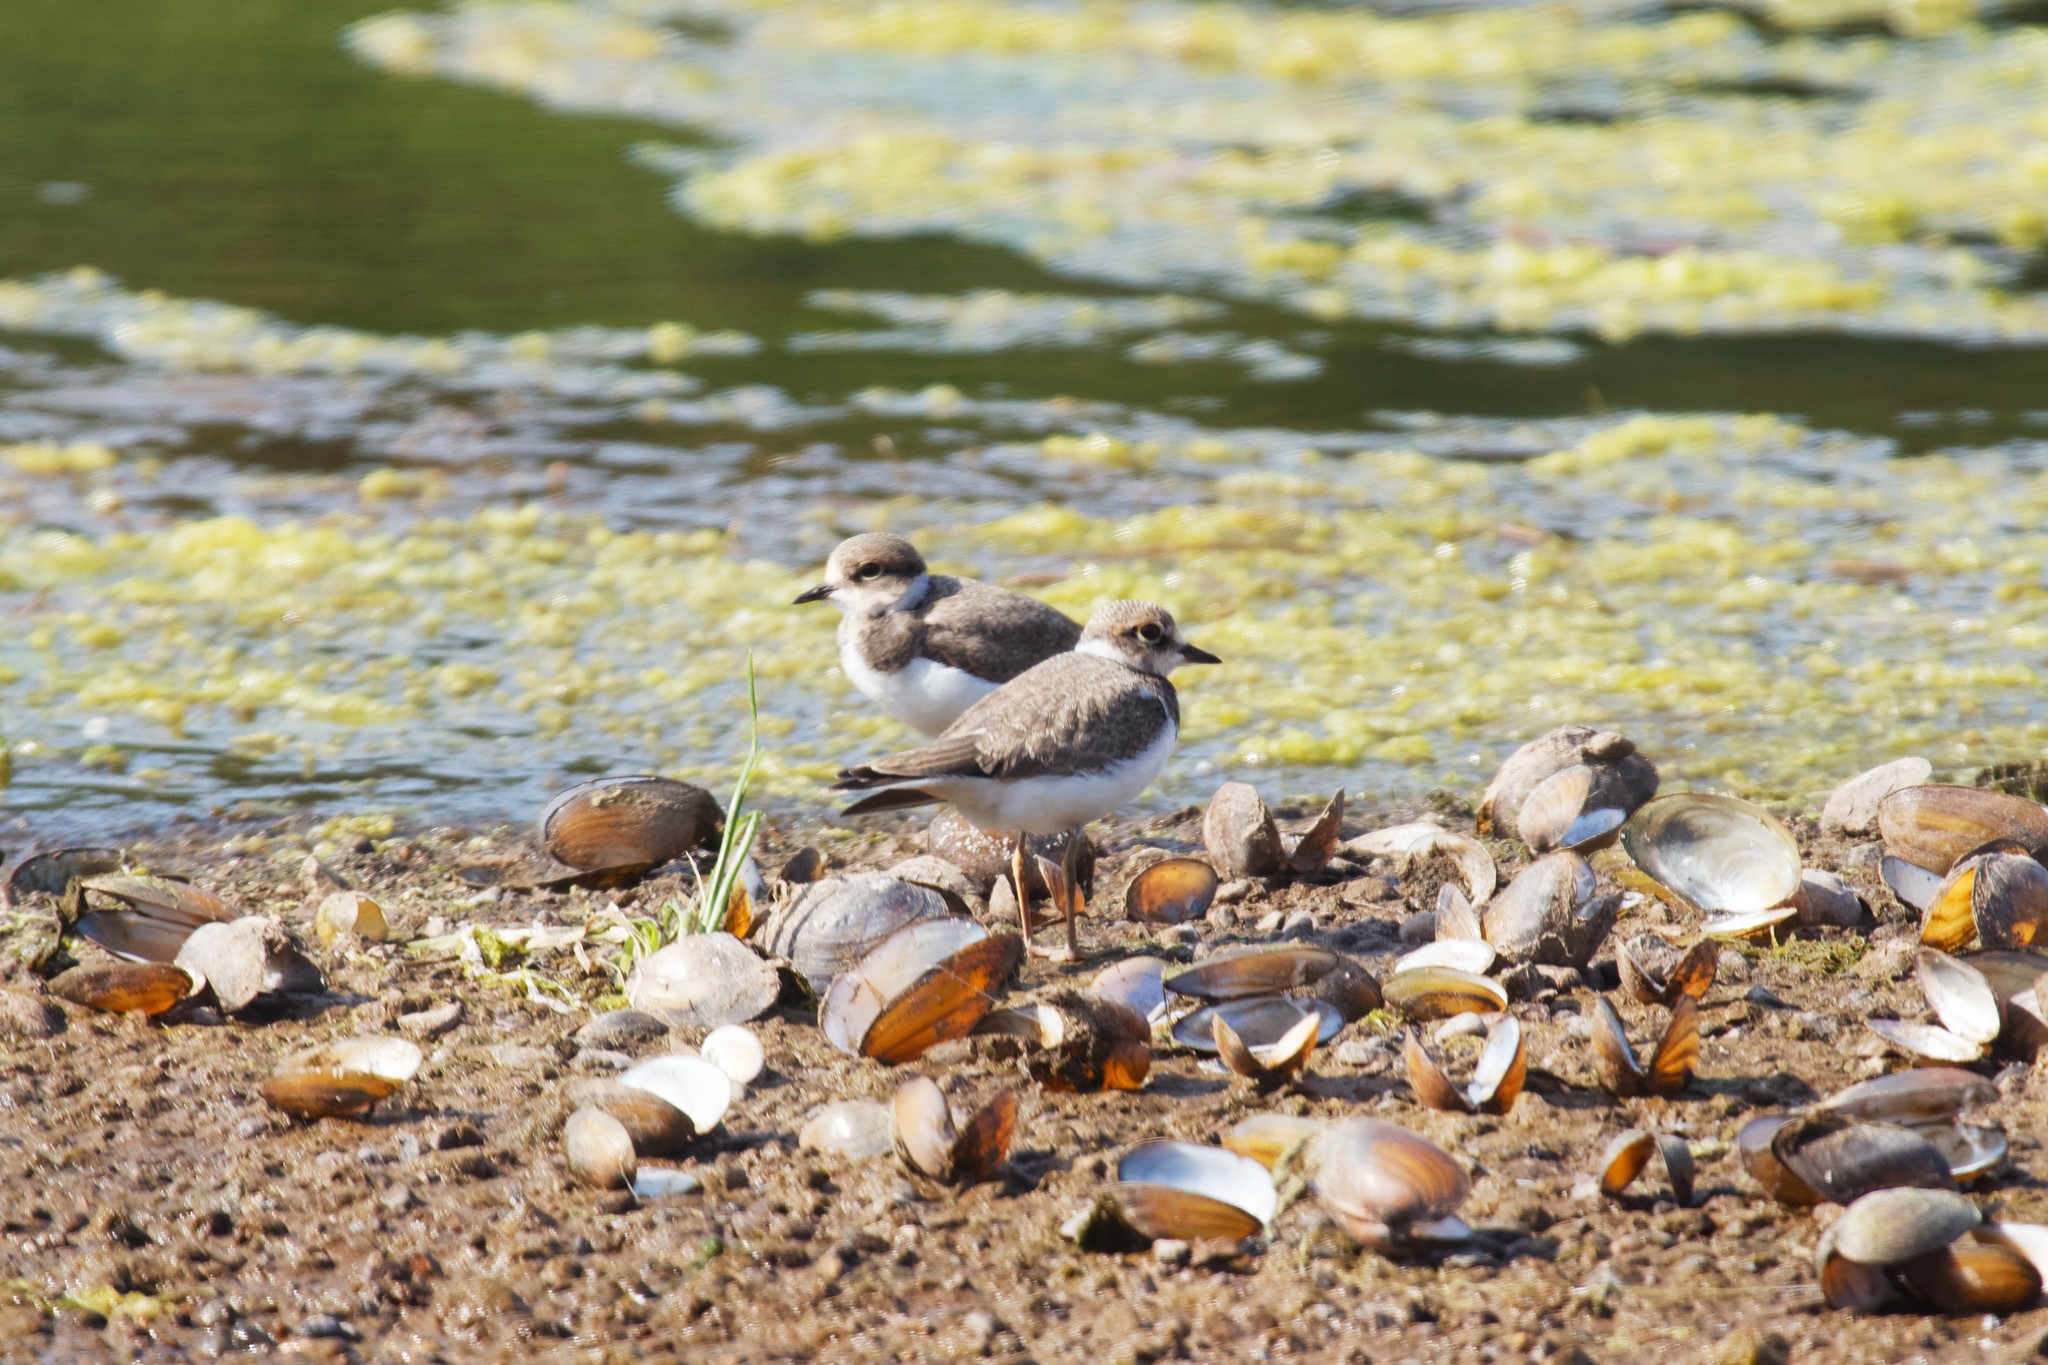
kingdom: Animalia
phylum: Chordata
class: Aves
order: Charadriiformes
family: Charadriidae
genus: Charadrius
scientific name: Charadrius dubius
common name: Little ringed plover
